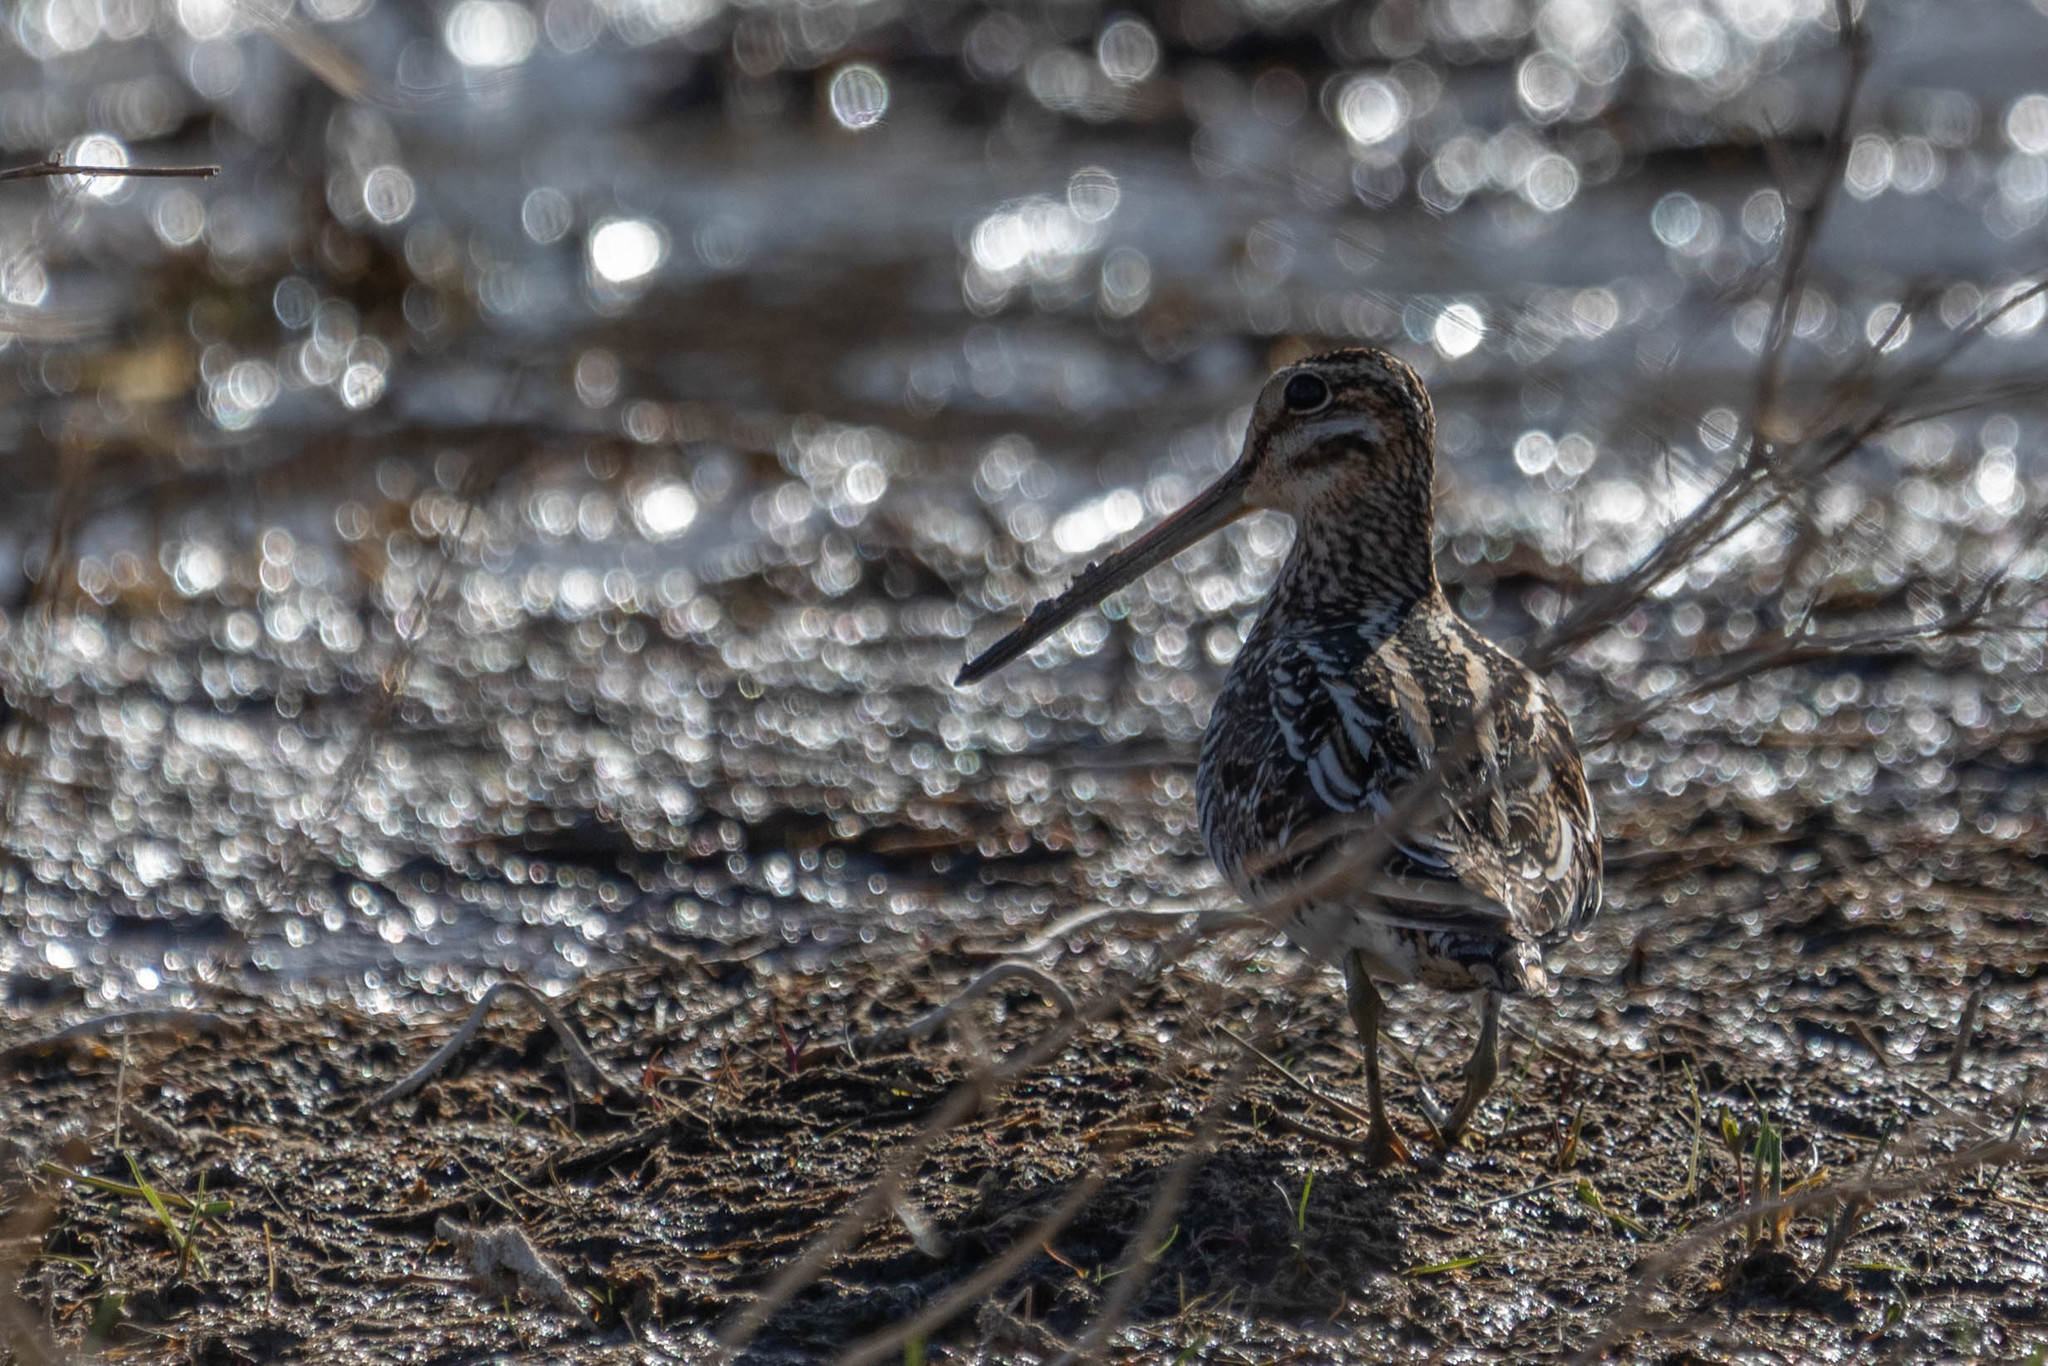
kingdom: Animalia
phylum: Chordata
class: Aves
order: Charadriiformes
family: Scolopacidae
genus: Gallinago
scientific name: Gallinago delicata
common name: Wilson's snipe
